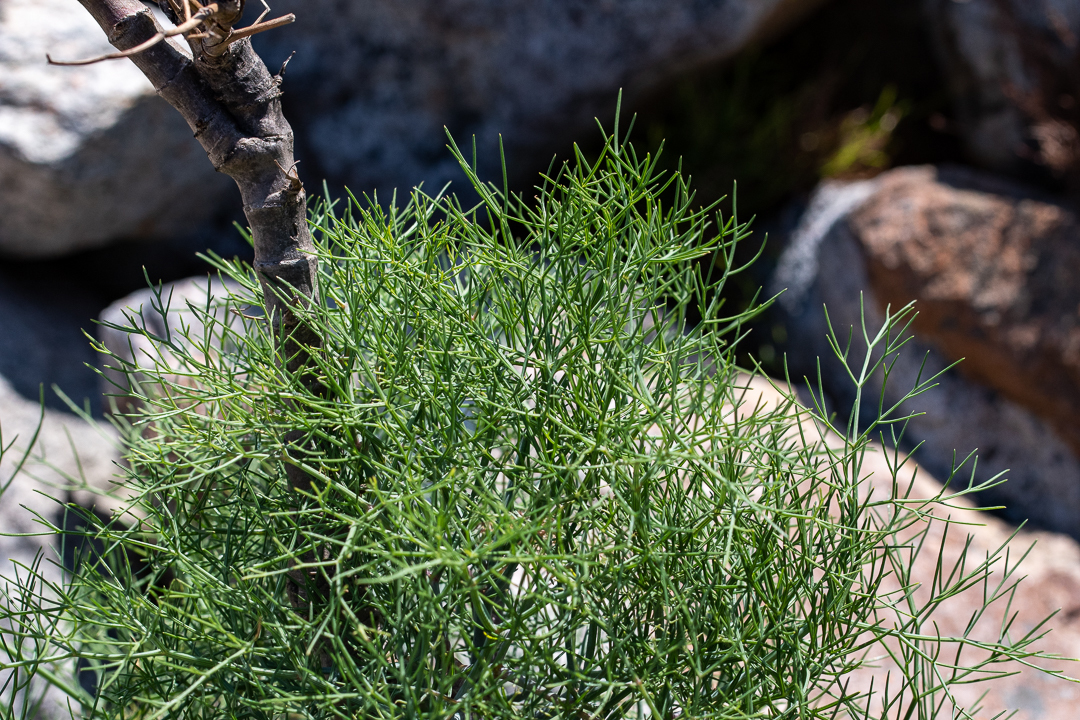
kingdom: Plantae
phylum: Tracheophyta
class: Magnoliopsida
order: Apiales
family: Apiaceae
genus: Notobubon
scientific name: Notobubon capense
